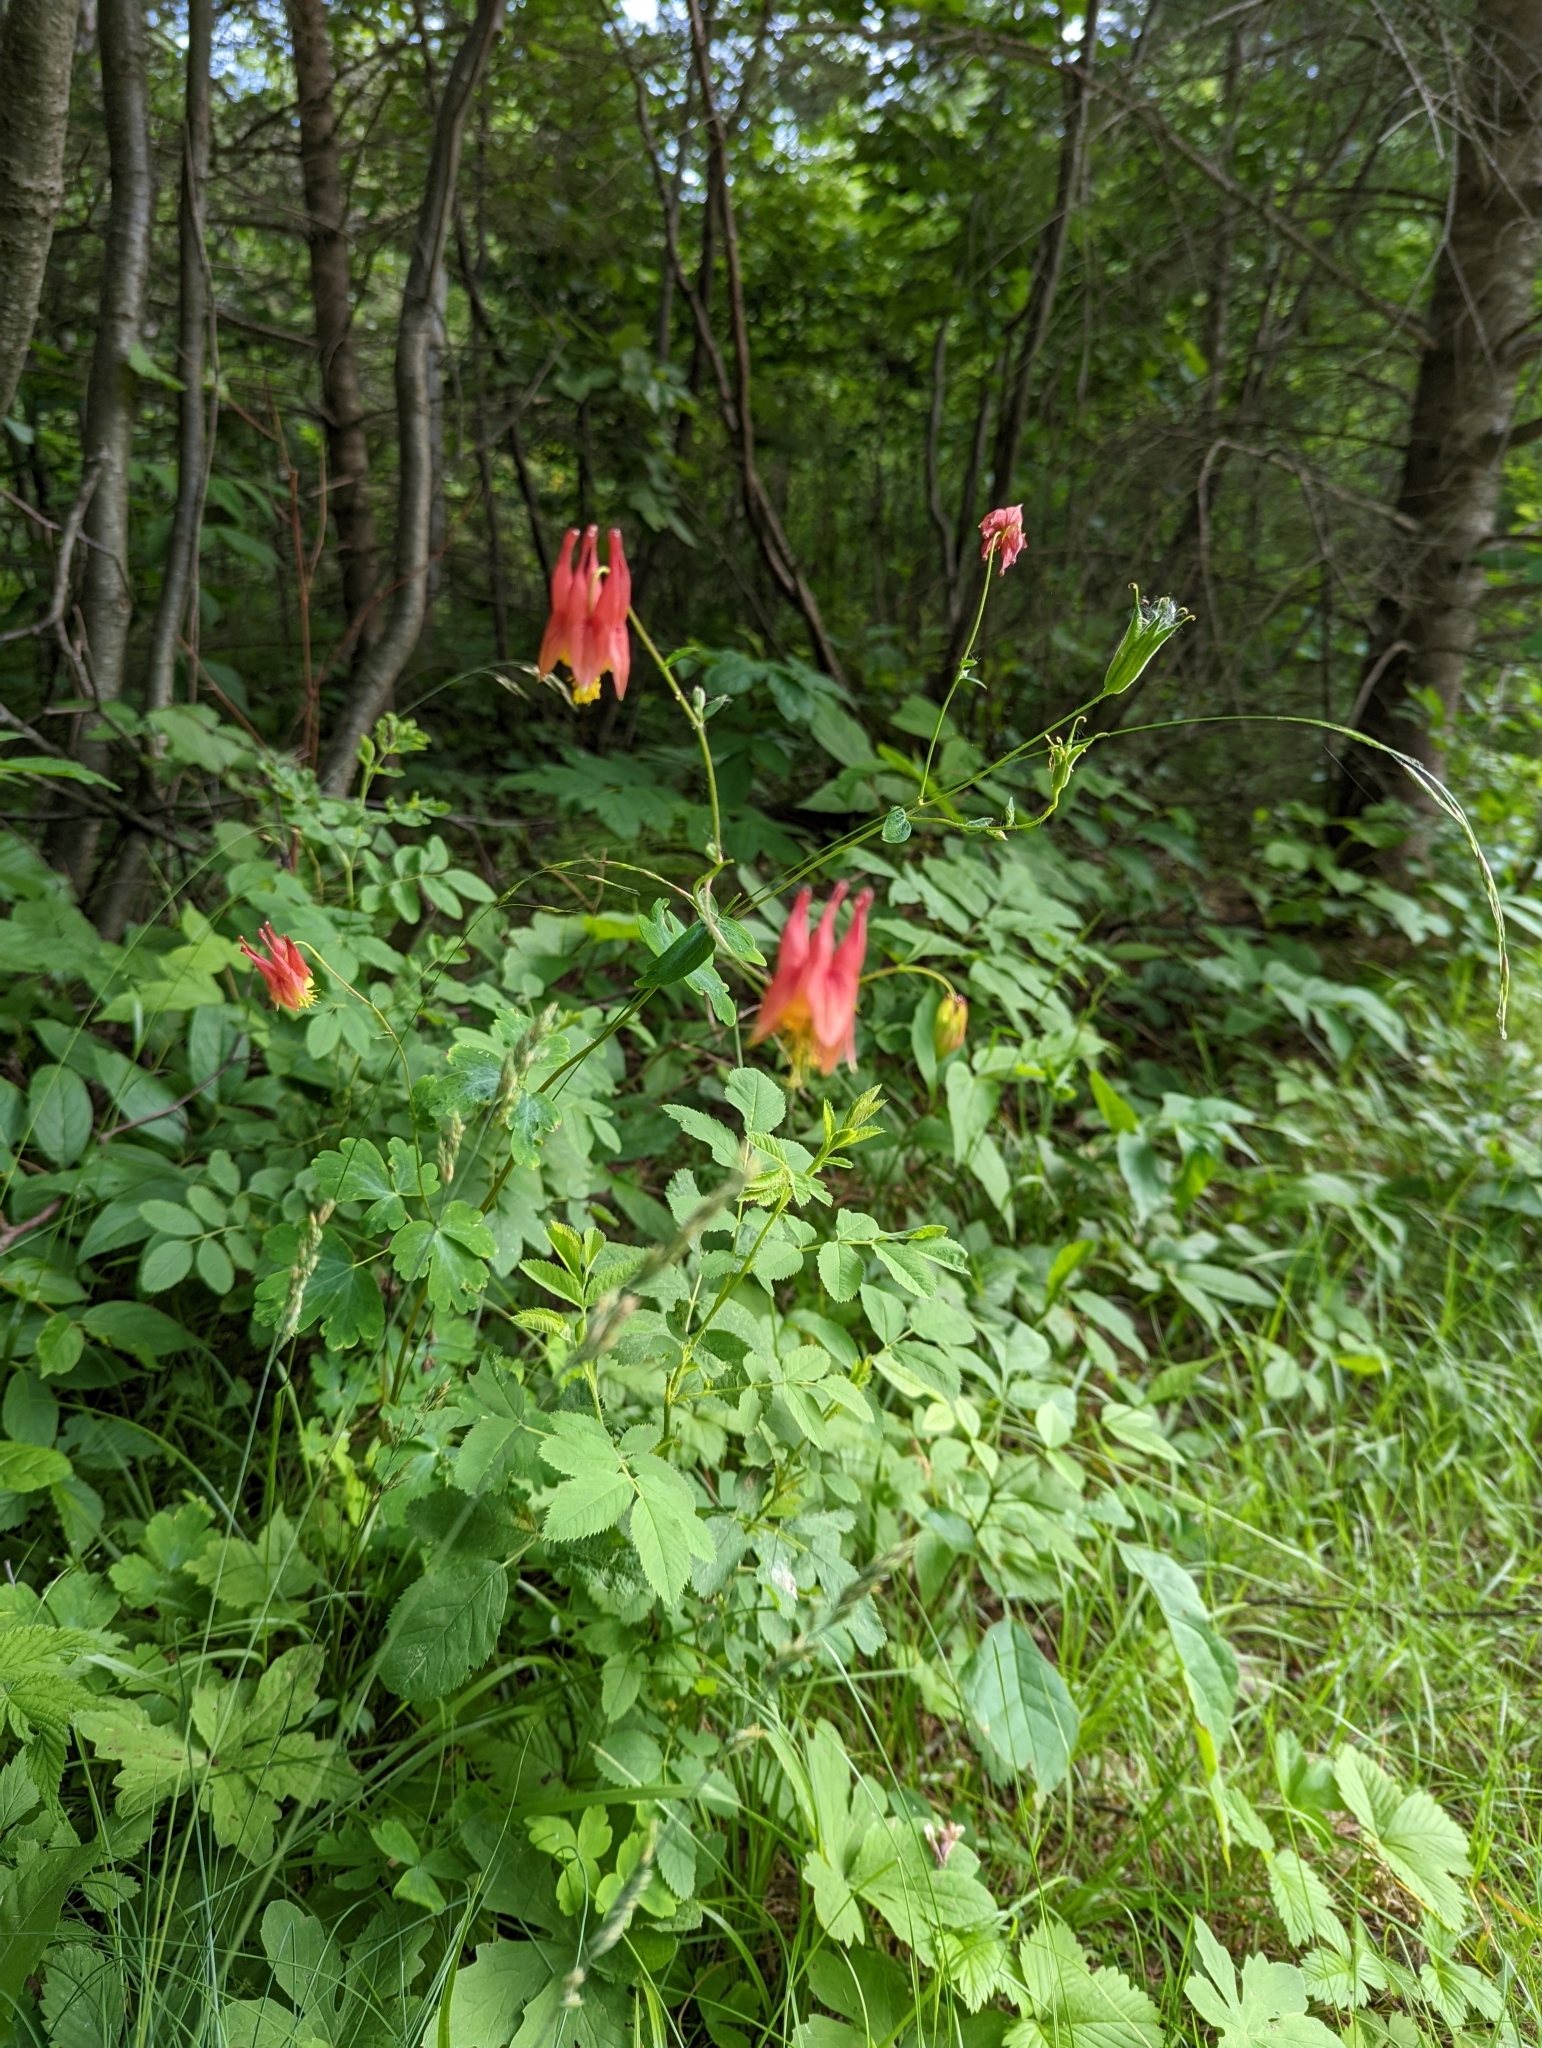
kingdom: Plantae
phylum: Tracheophyta
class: Magnoliopsida
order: Ranunculales
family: Ranunculaceae
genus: Aquilegia
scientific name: Aquilegia canadensis
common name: American columbine
